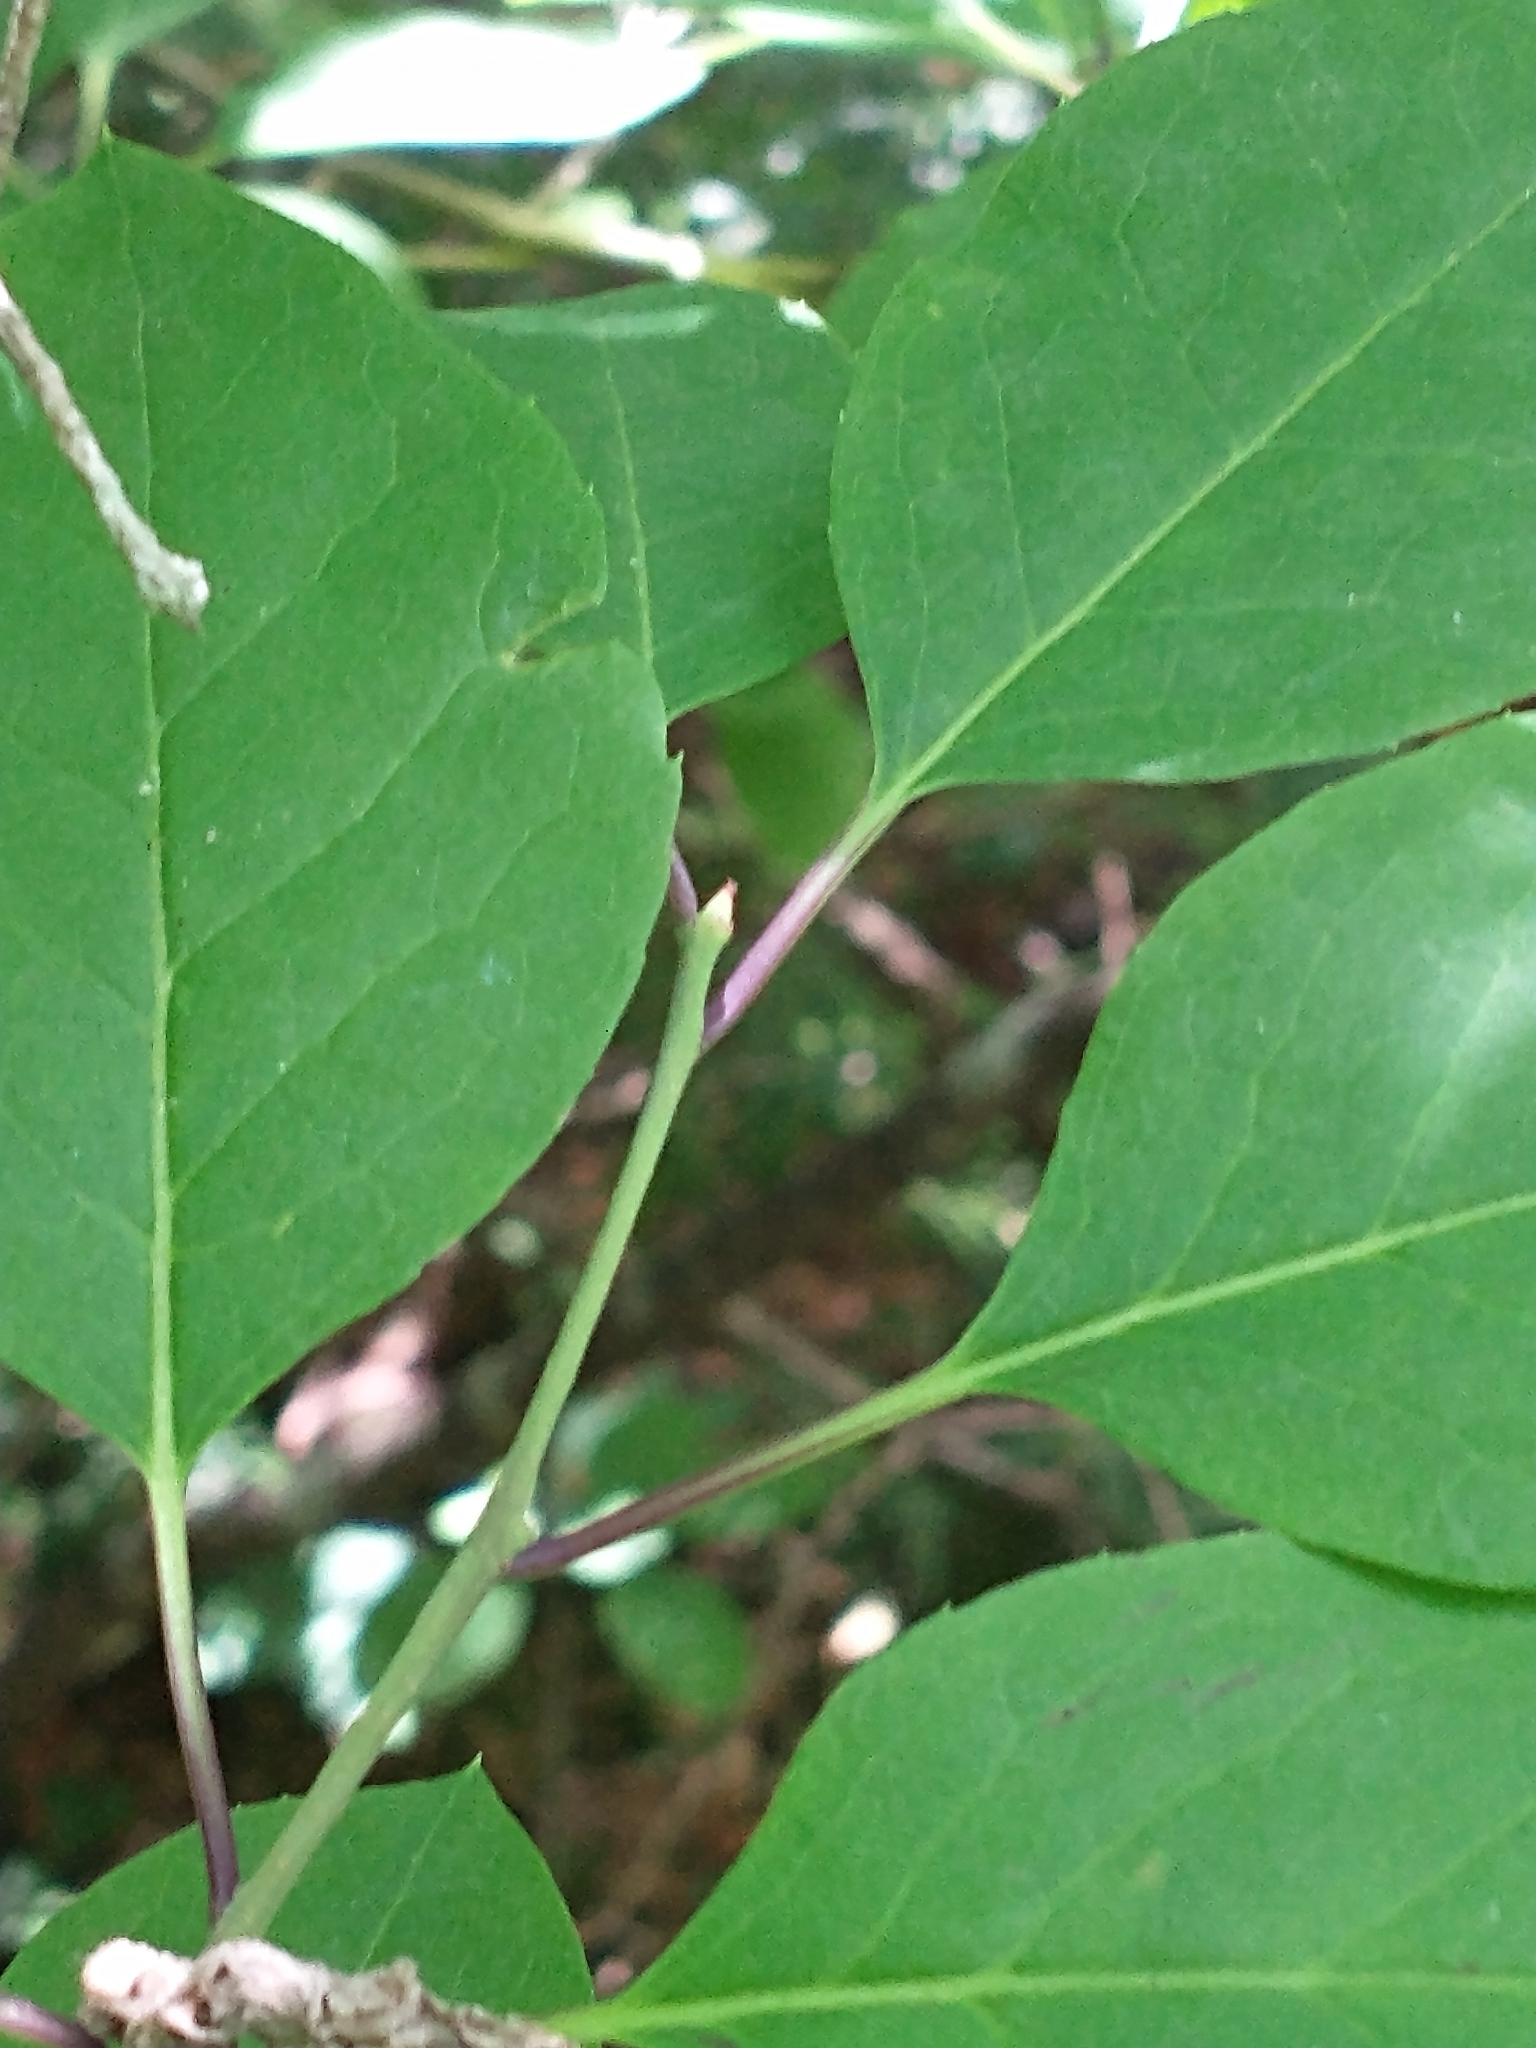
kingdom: Plantae
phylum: Tracheophyta
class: Magnoliopsida
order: Aquifoliales
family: Aquifoliaceae
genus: Ilex
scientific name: Ilex mucronata
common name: Catberry
